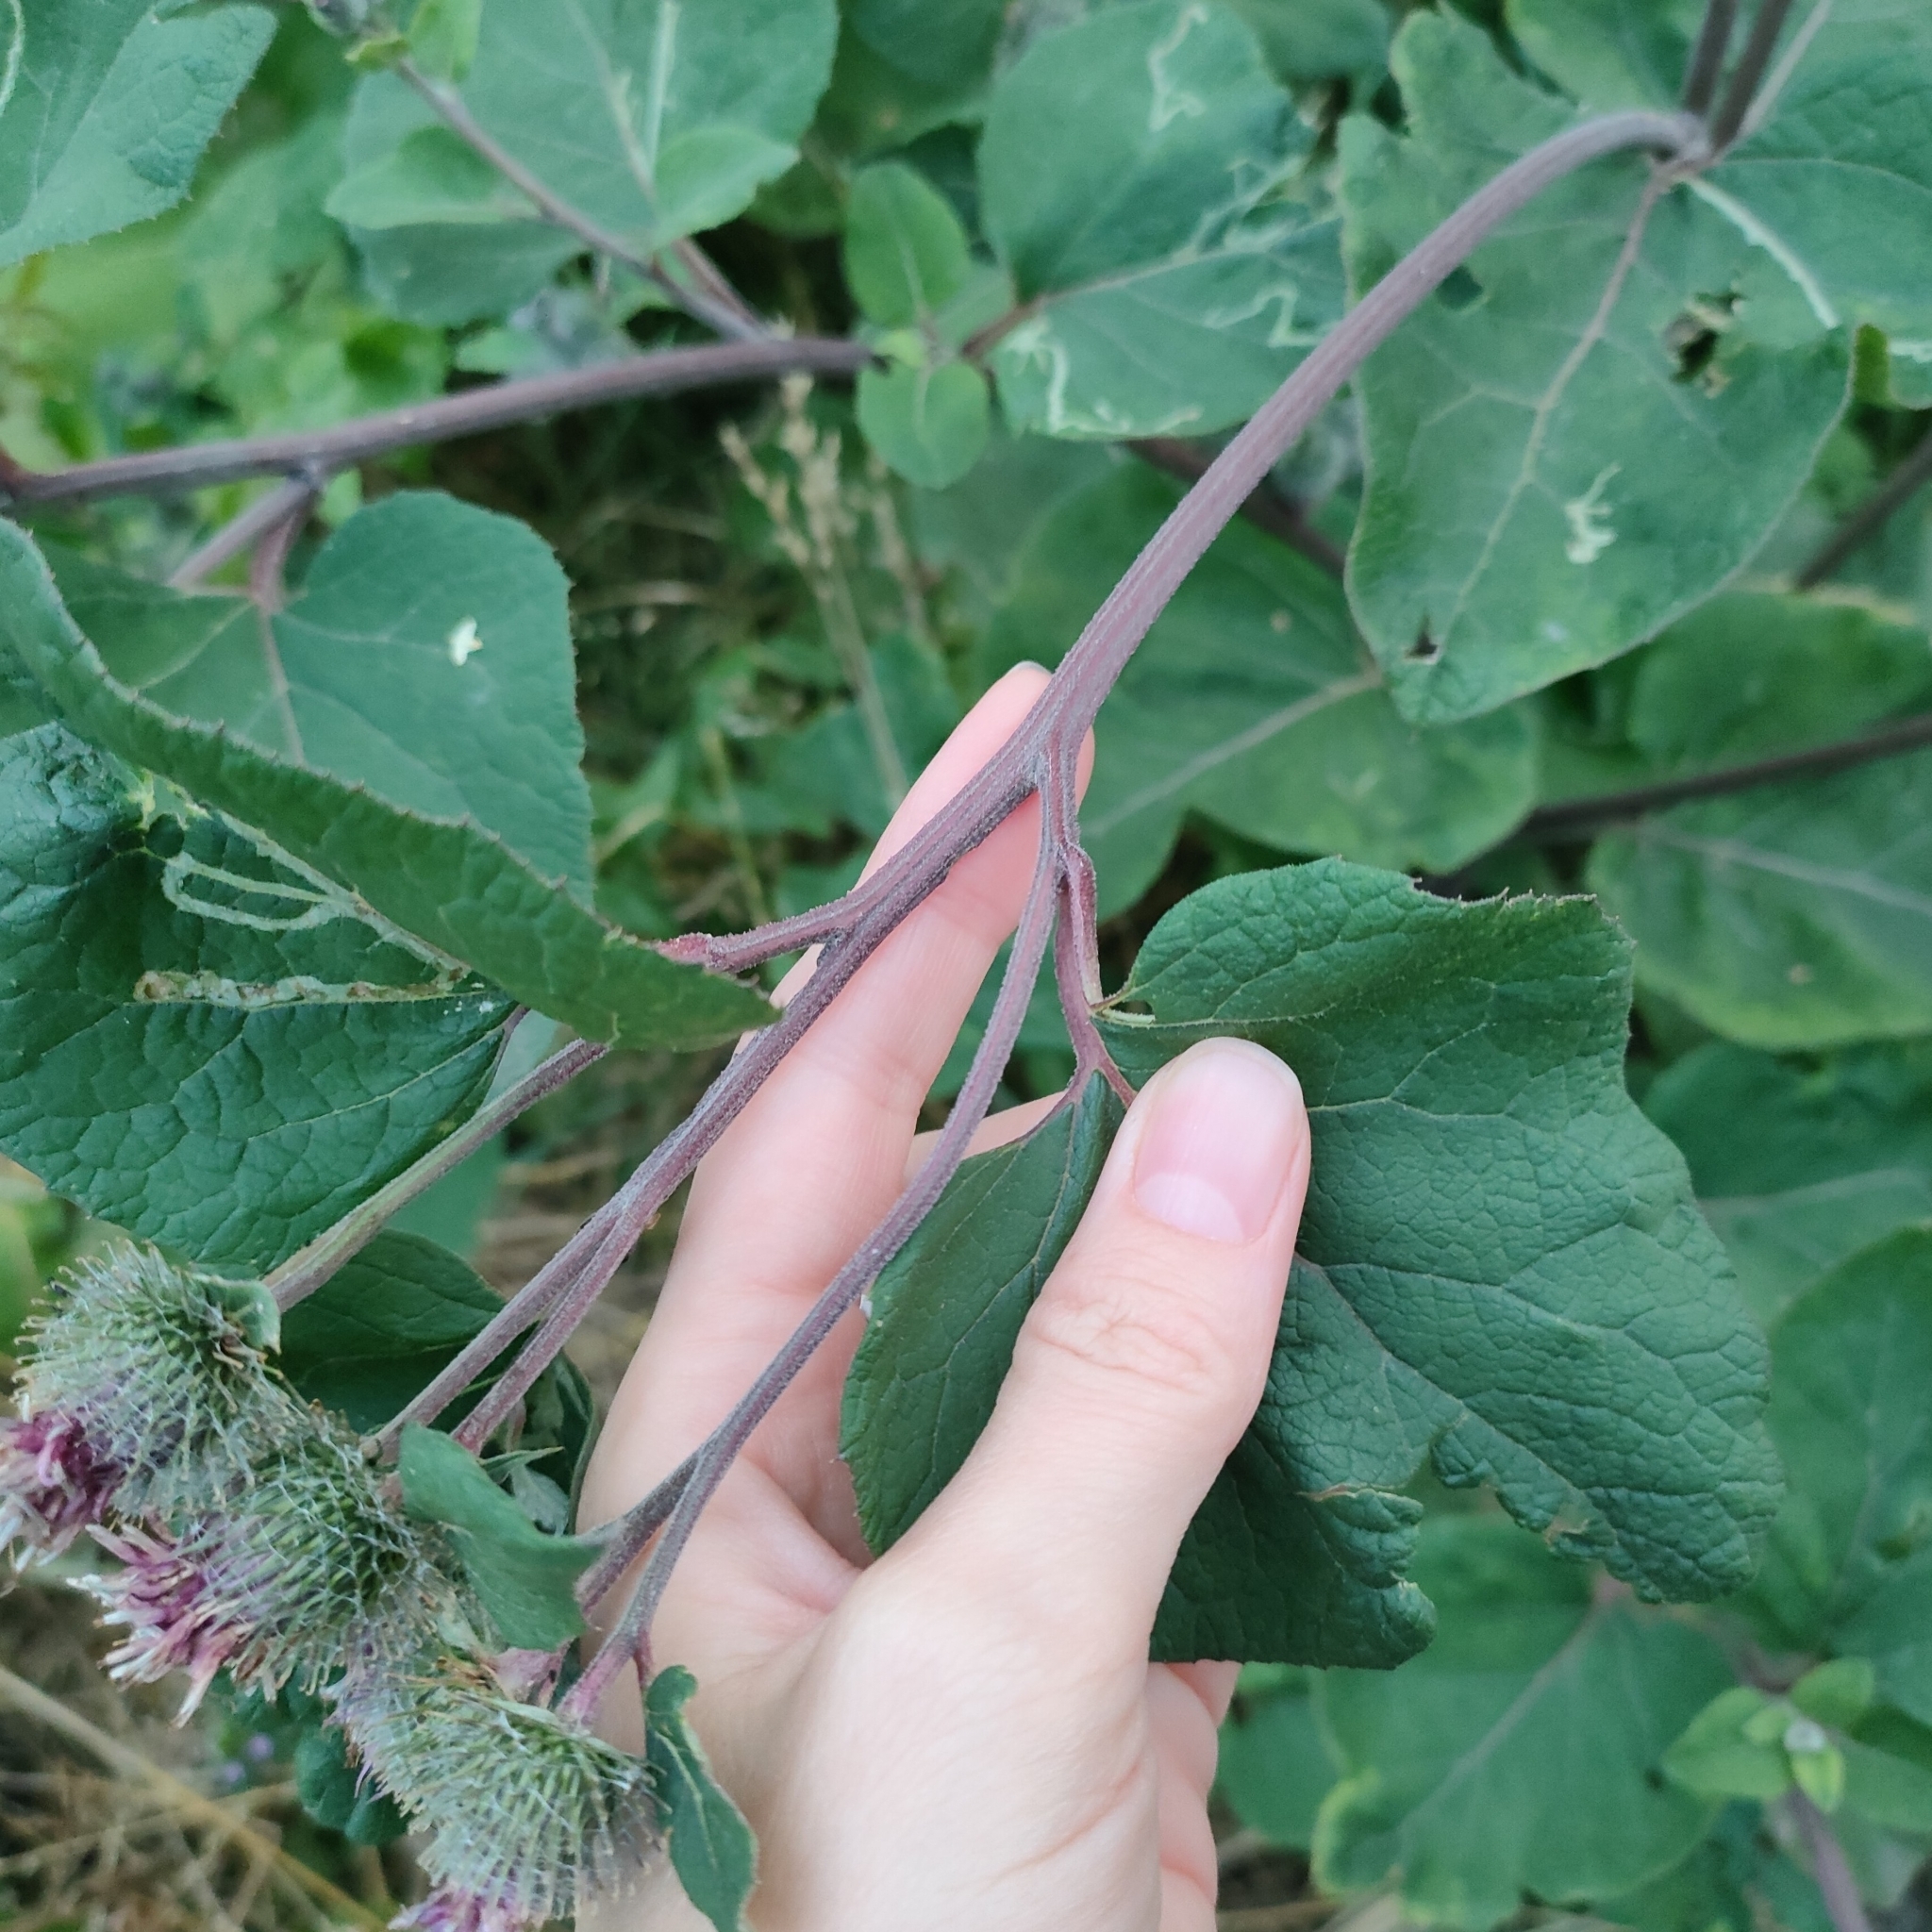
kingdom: Plantae
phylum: Tracheophyta
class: Magnoliopsida
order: Asterales
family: Asteraceae
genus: Arctium
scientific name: Arctium tomentosum
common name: Woolly burdock
